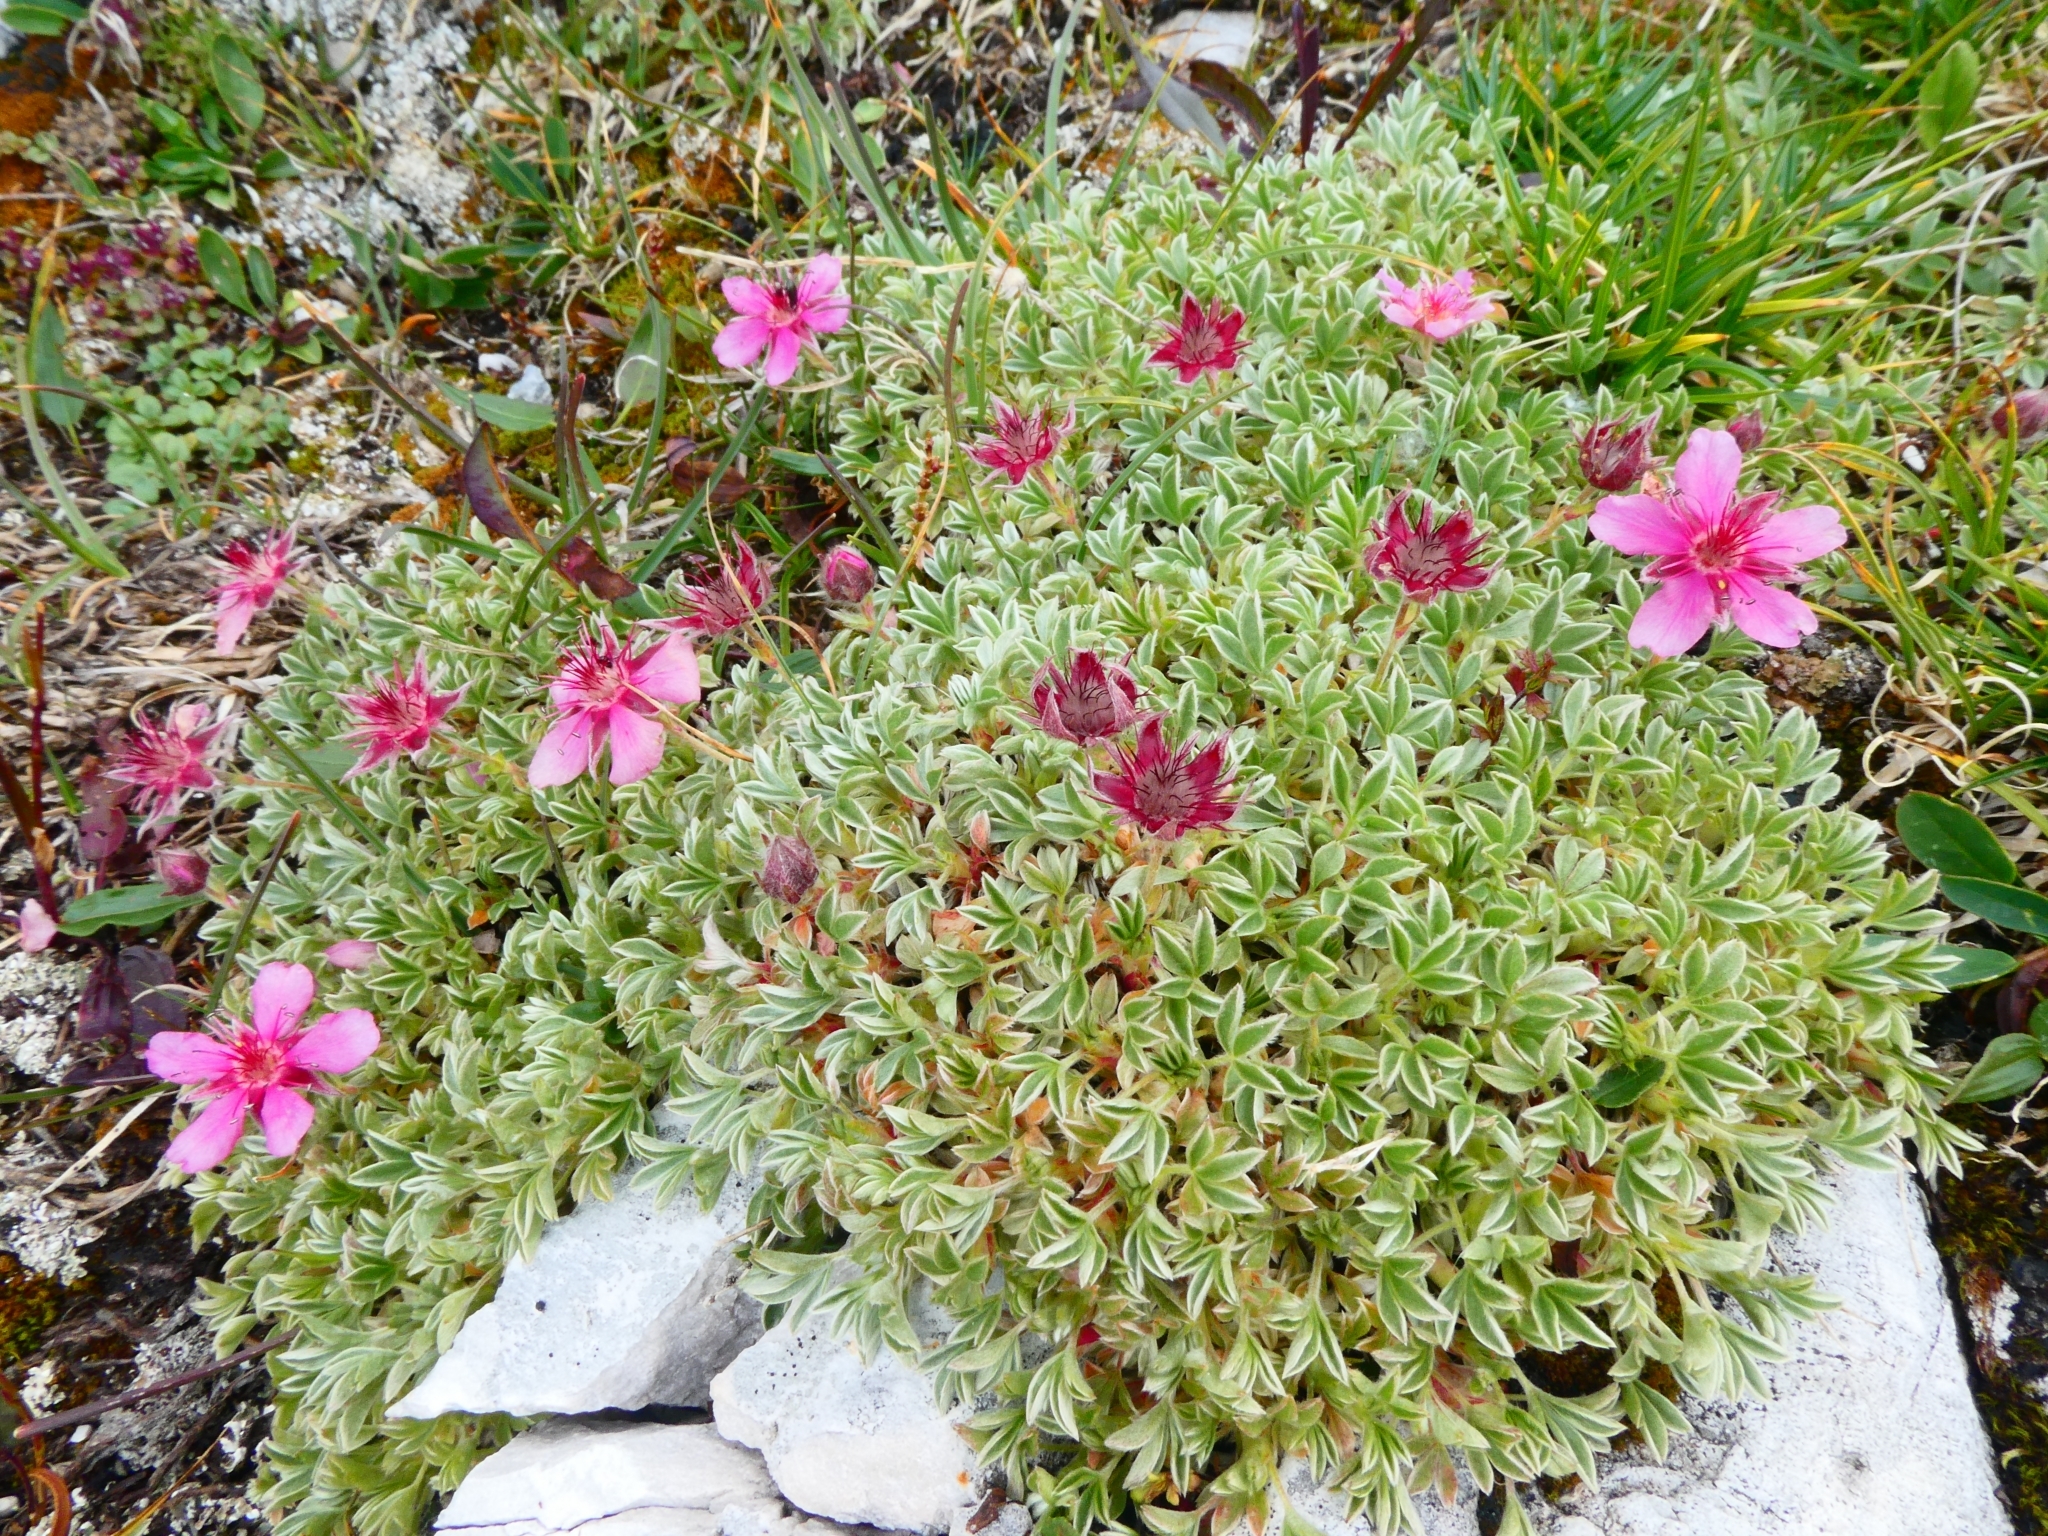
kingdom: Plantae
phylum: Tracheophyta
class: Magnoliopsida
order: Rosales
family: Rosaceae
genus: Potentilla
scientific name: Potentilla nitida
